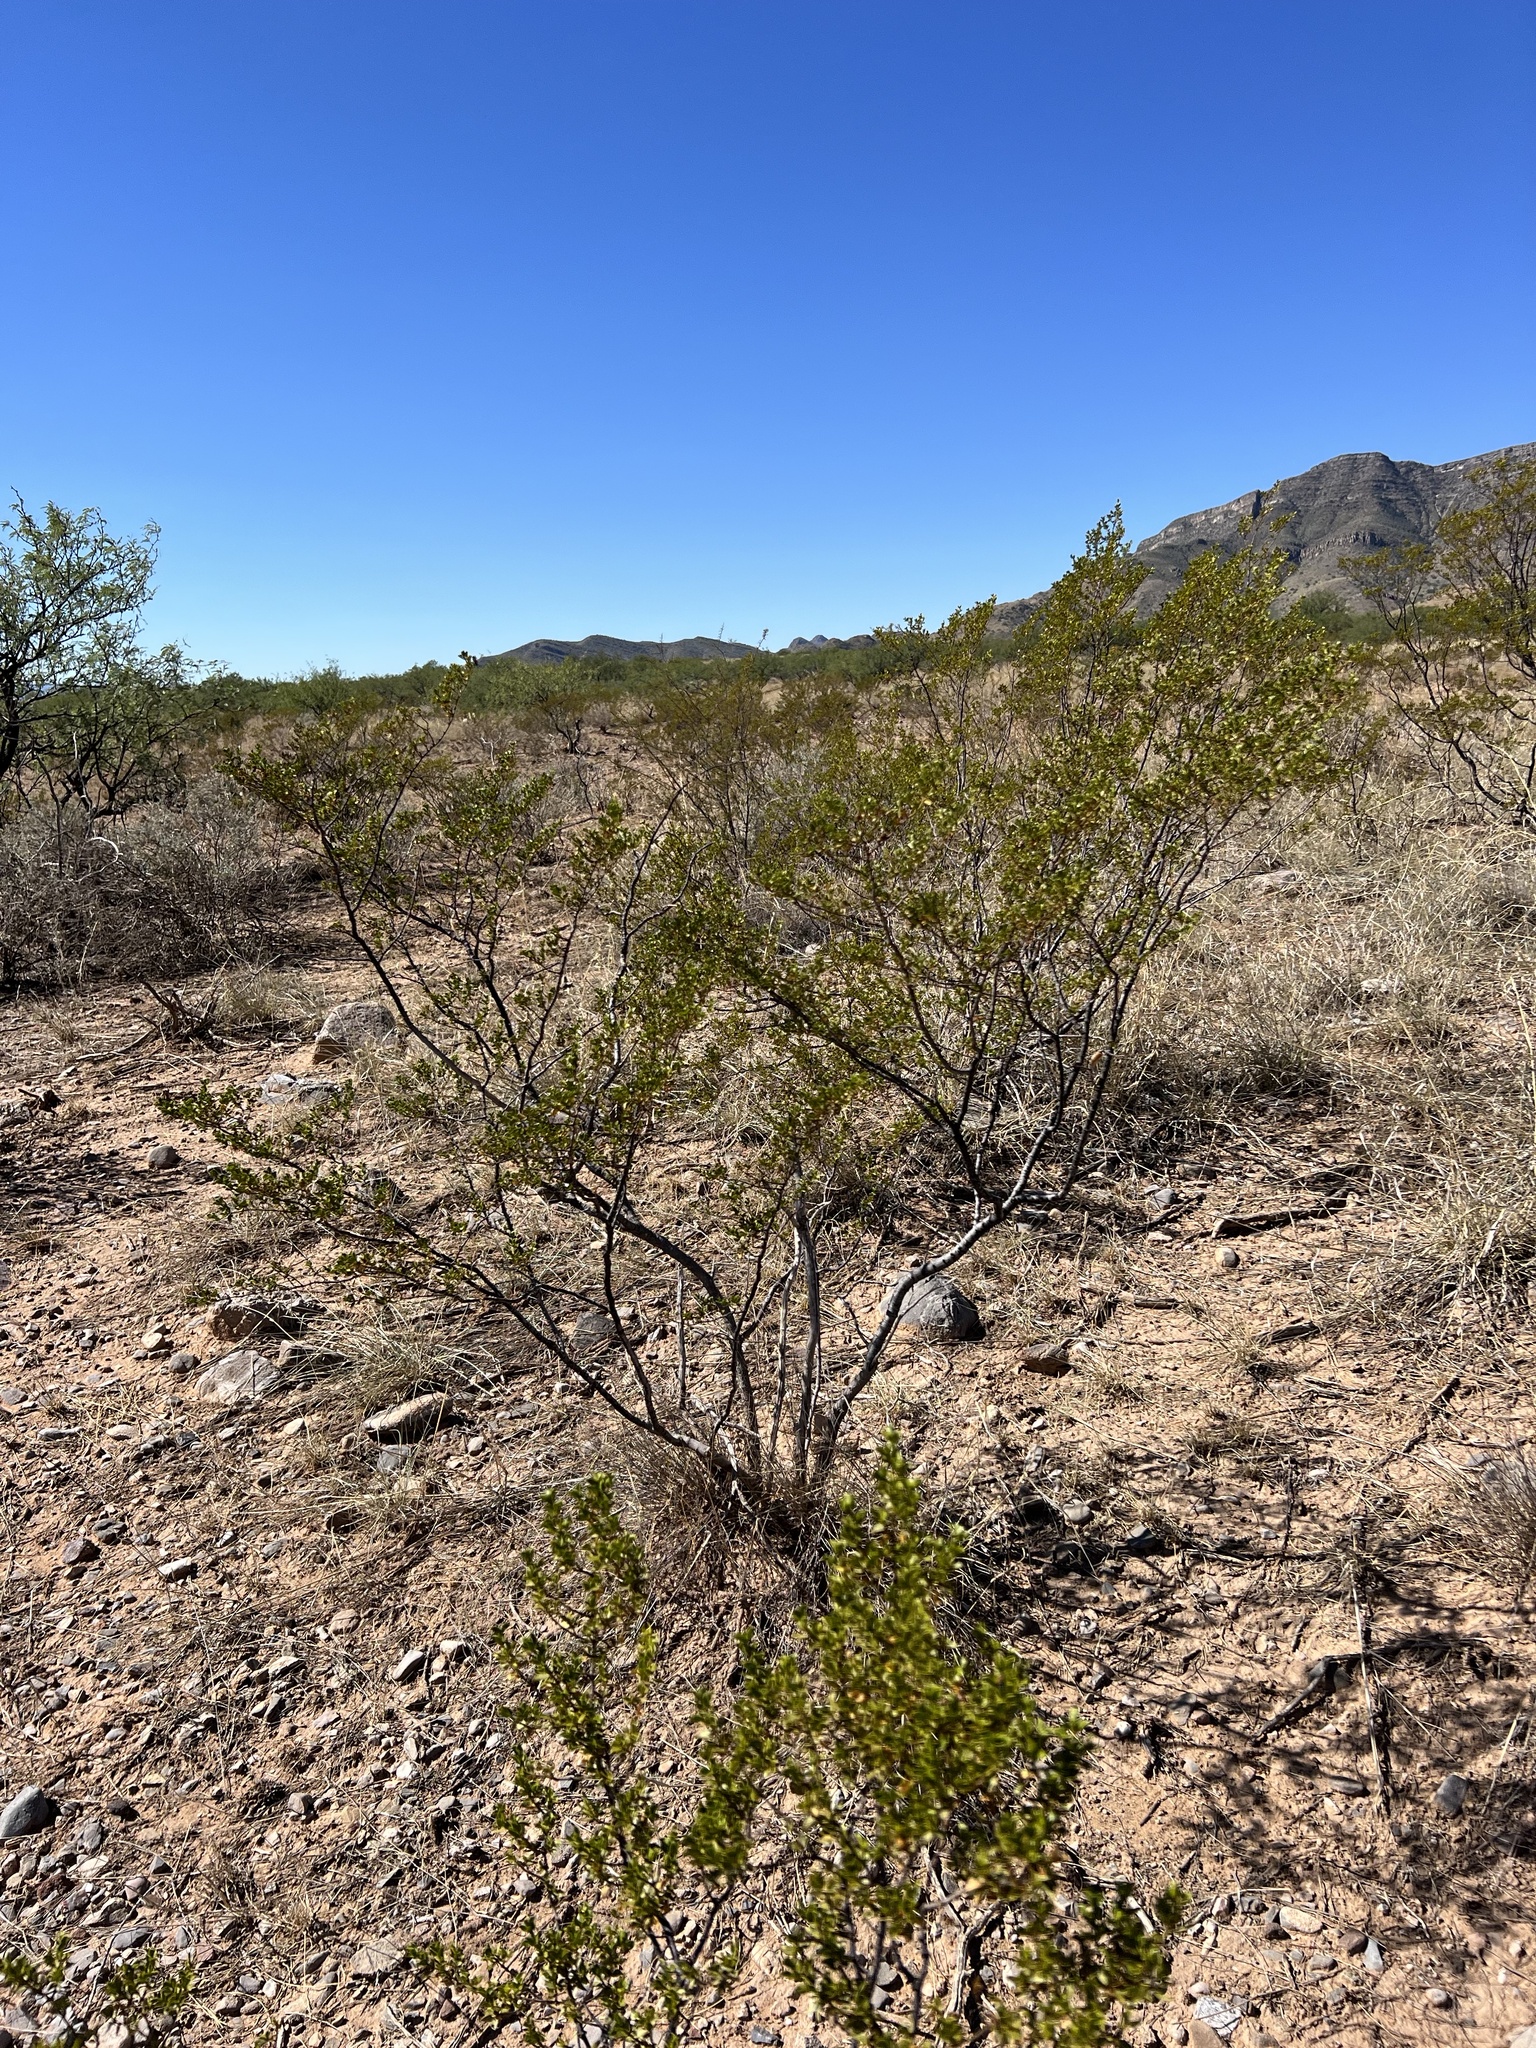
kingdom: Plantae
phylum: Tracheophyta
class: Magnoliopsida
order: Zygophyllales
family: Zygophyllaceae
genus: Larrea
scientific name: Larrea tridentata
